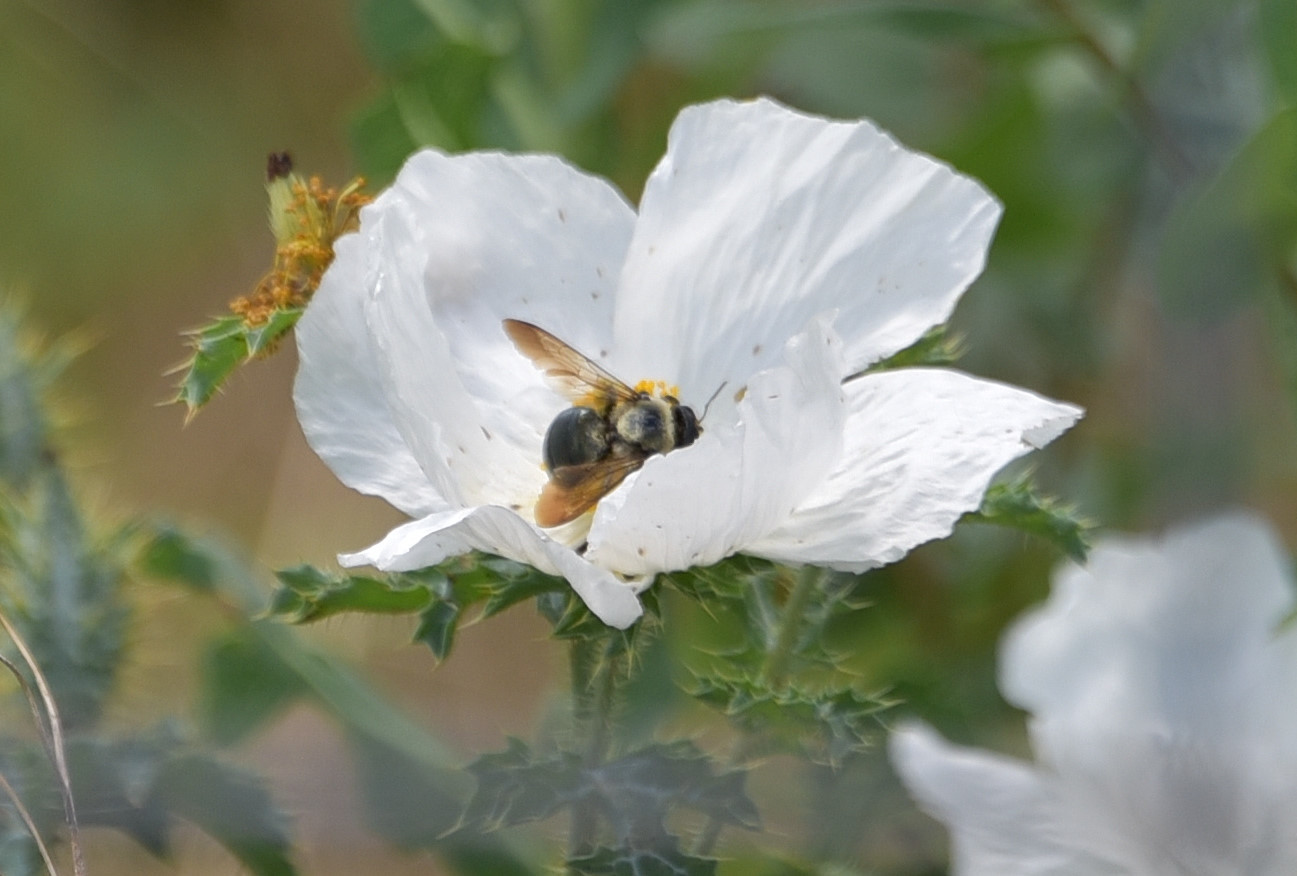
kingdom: Animalia
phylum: Arthropoda
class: Insecta
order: Hymenoptera
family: Apidae
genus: Xylocopa
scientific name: Xylocopa virginica
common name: Carpenter bee
